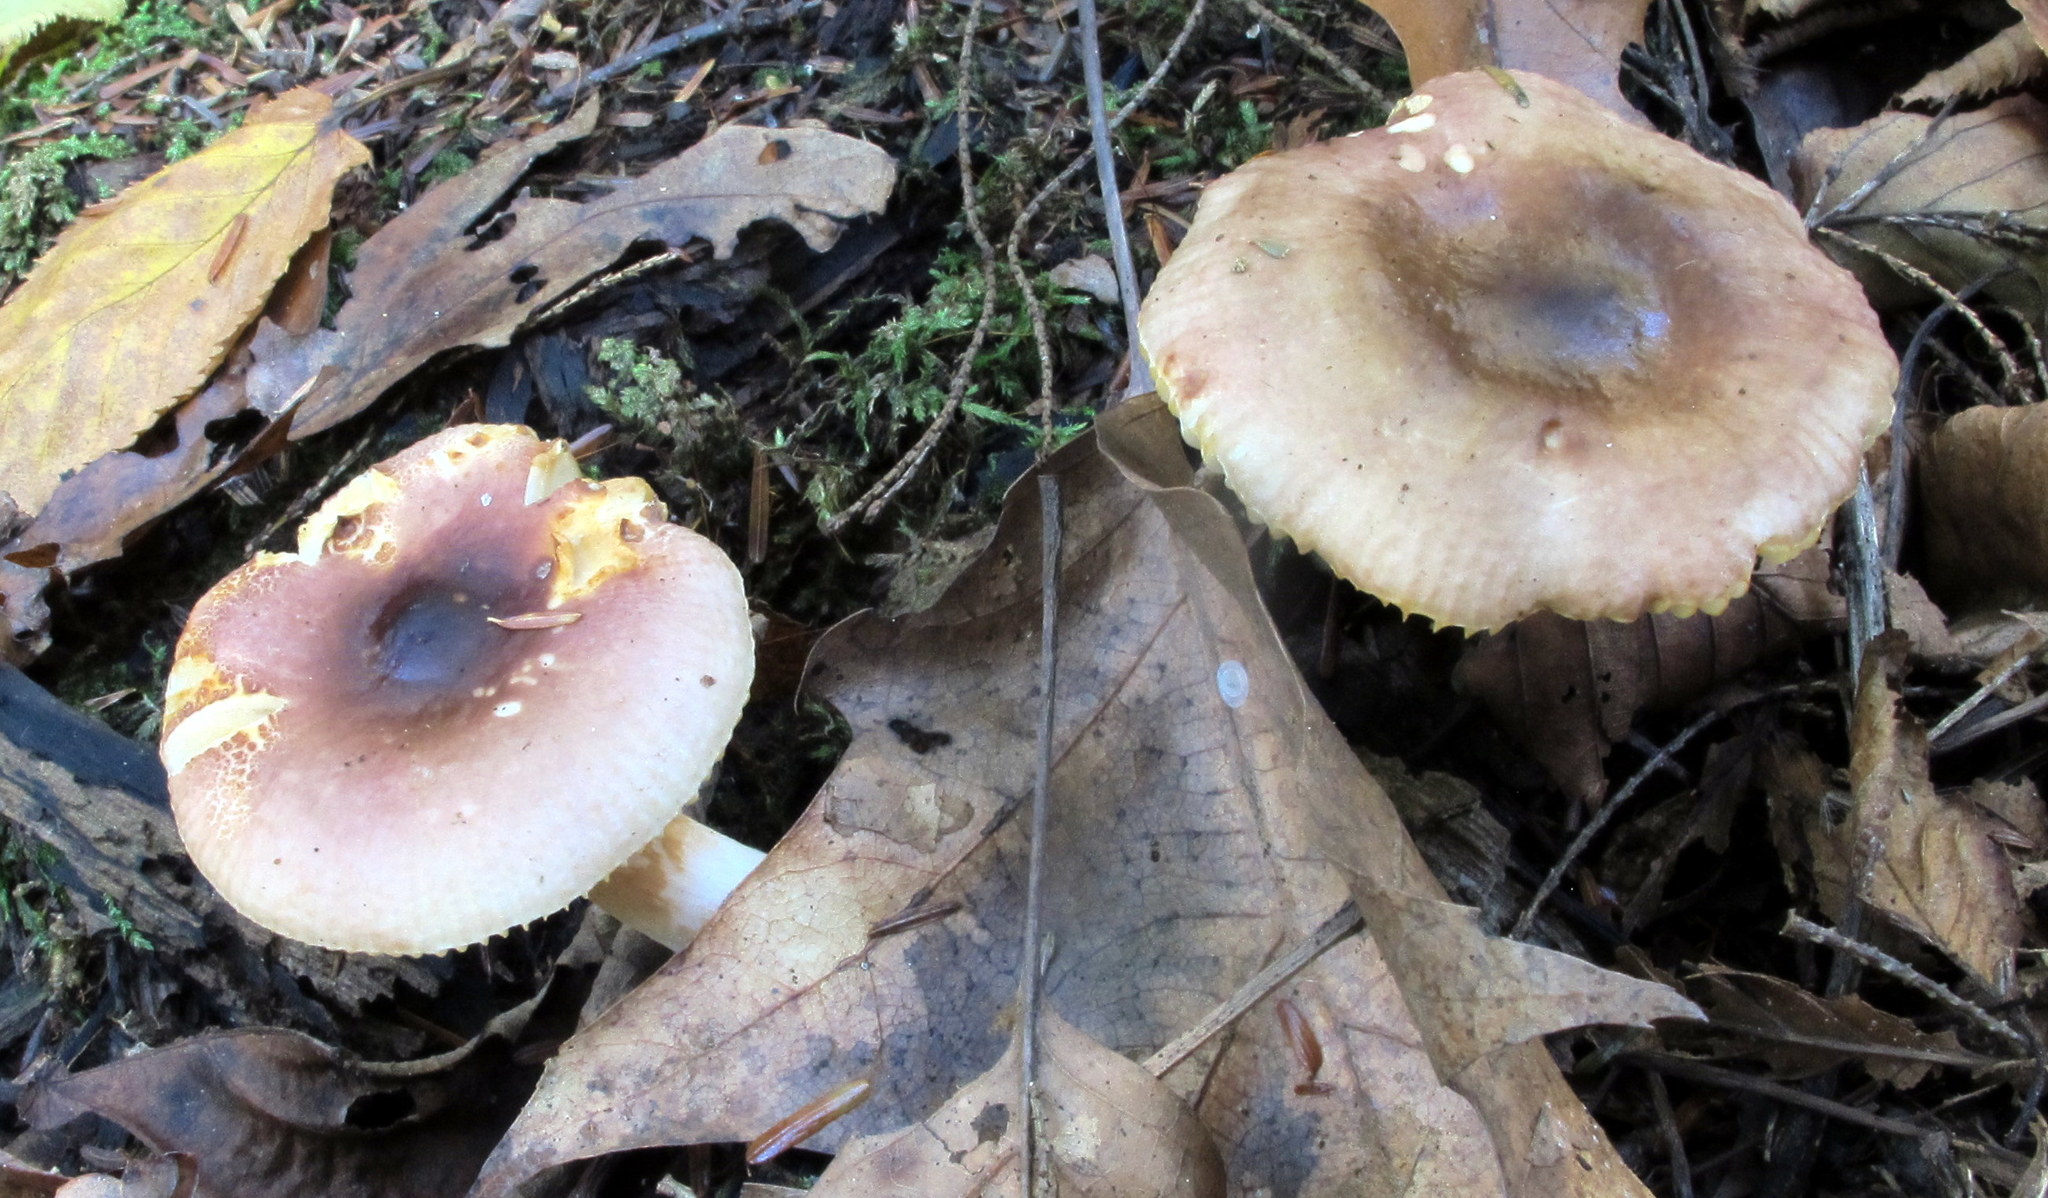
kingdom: Fungi
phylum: Basidiomycota
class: Agaricomycetes
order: Russulales
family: Russulaceae
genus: Russula
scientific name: Russula puellaris
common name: Yellowing brittlegill
